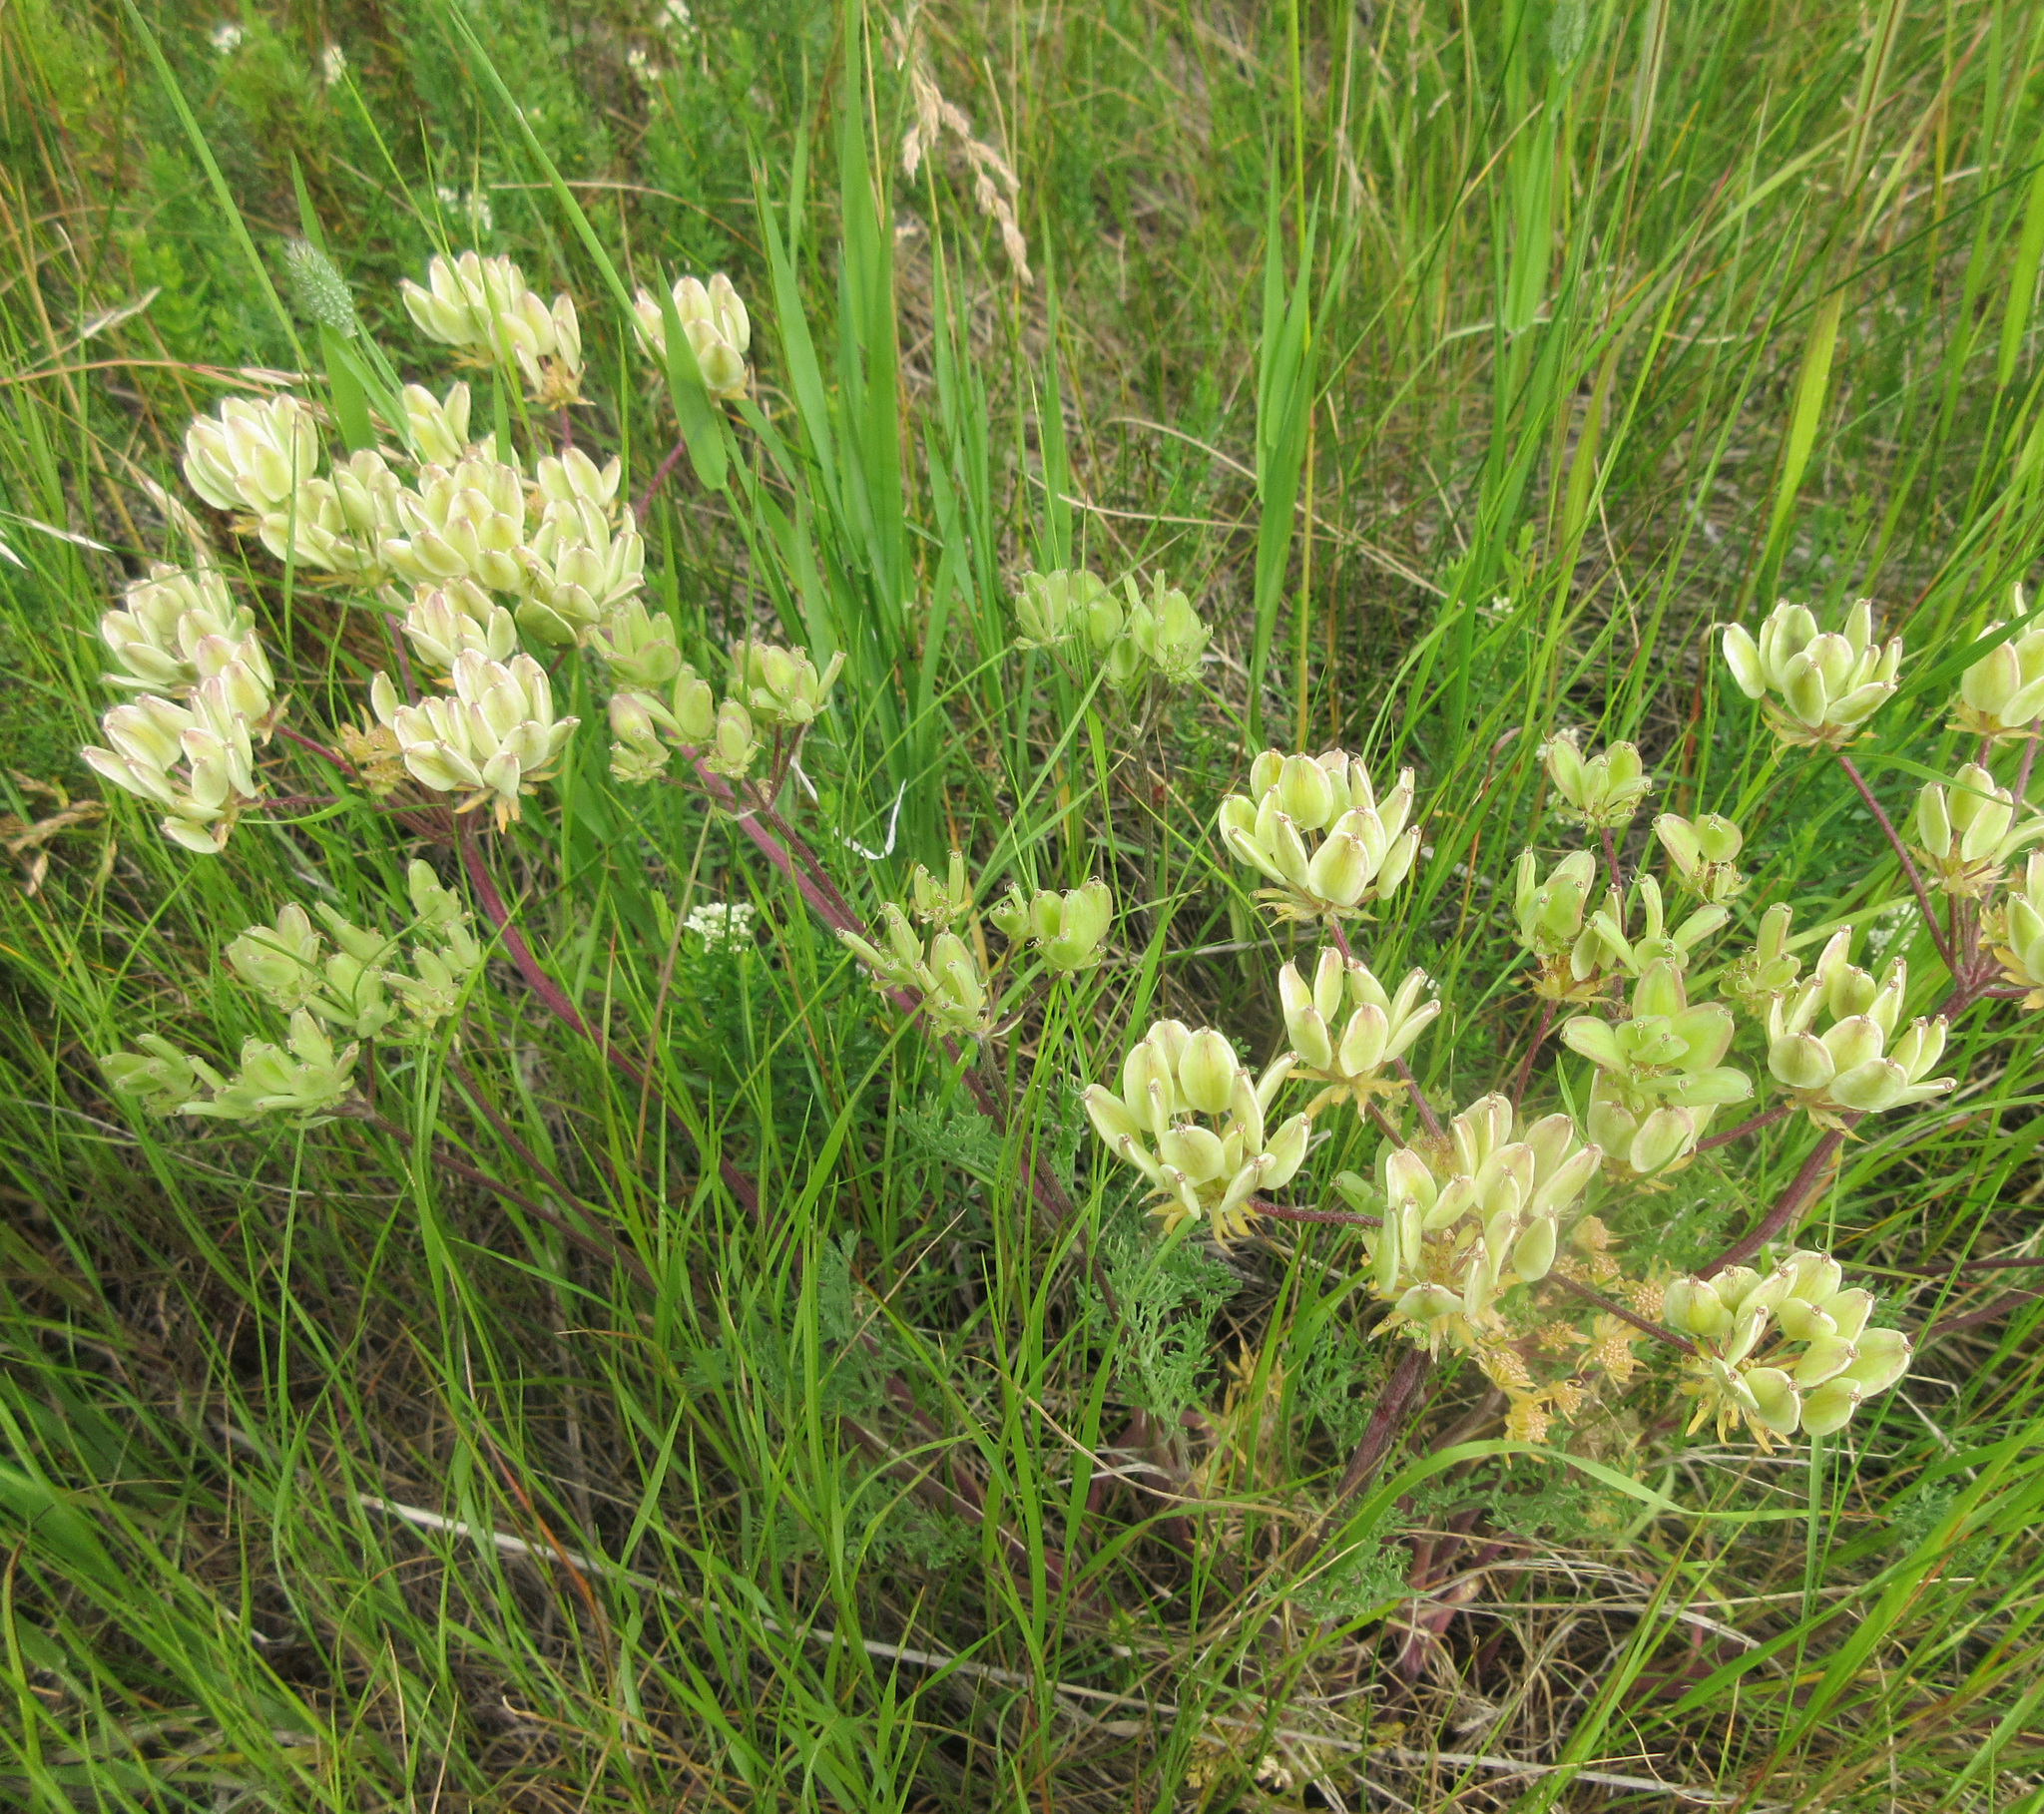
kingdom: Plantae
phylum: Tracheophyta
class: Magnoliopsida
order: Apiales
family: Apiaceae
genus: Lomatium
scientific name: Lomatium macrocarpum
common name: Big-seed biscuitroot
